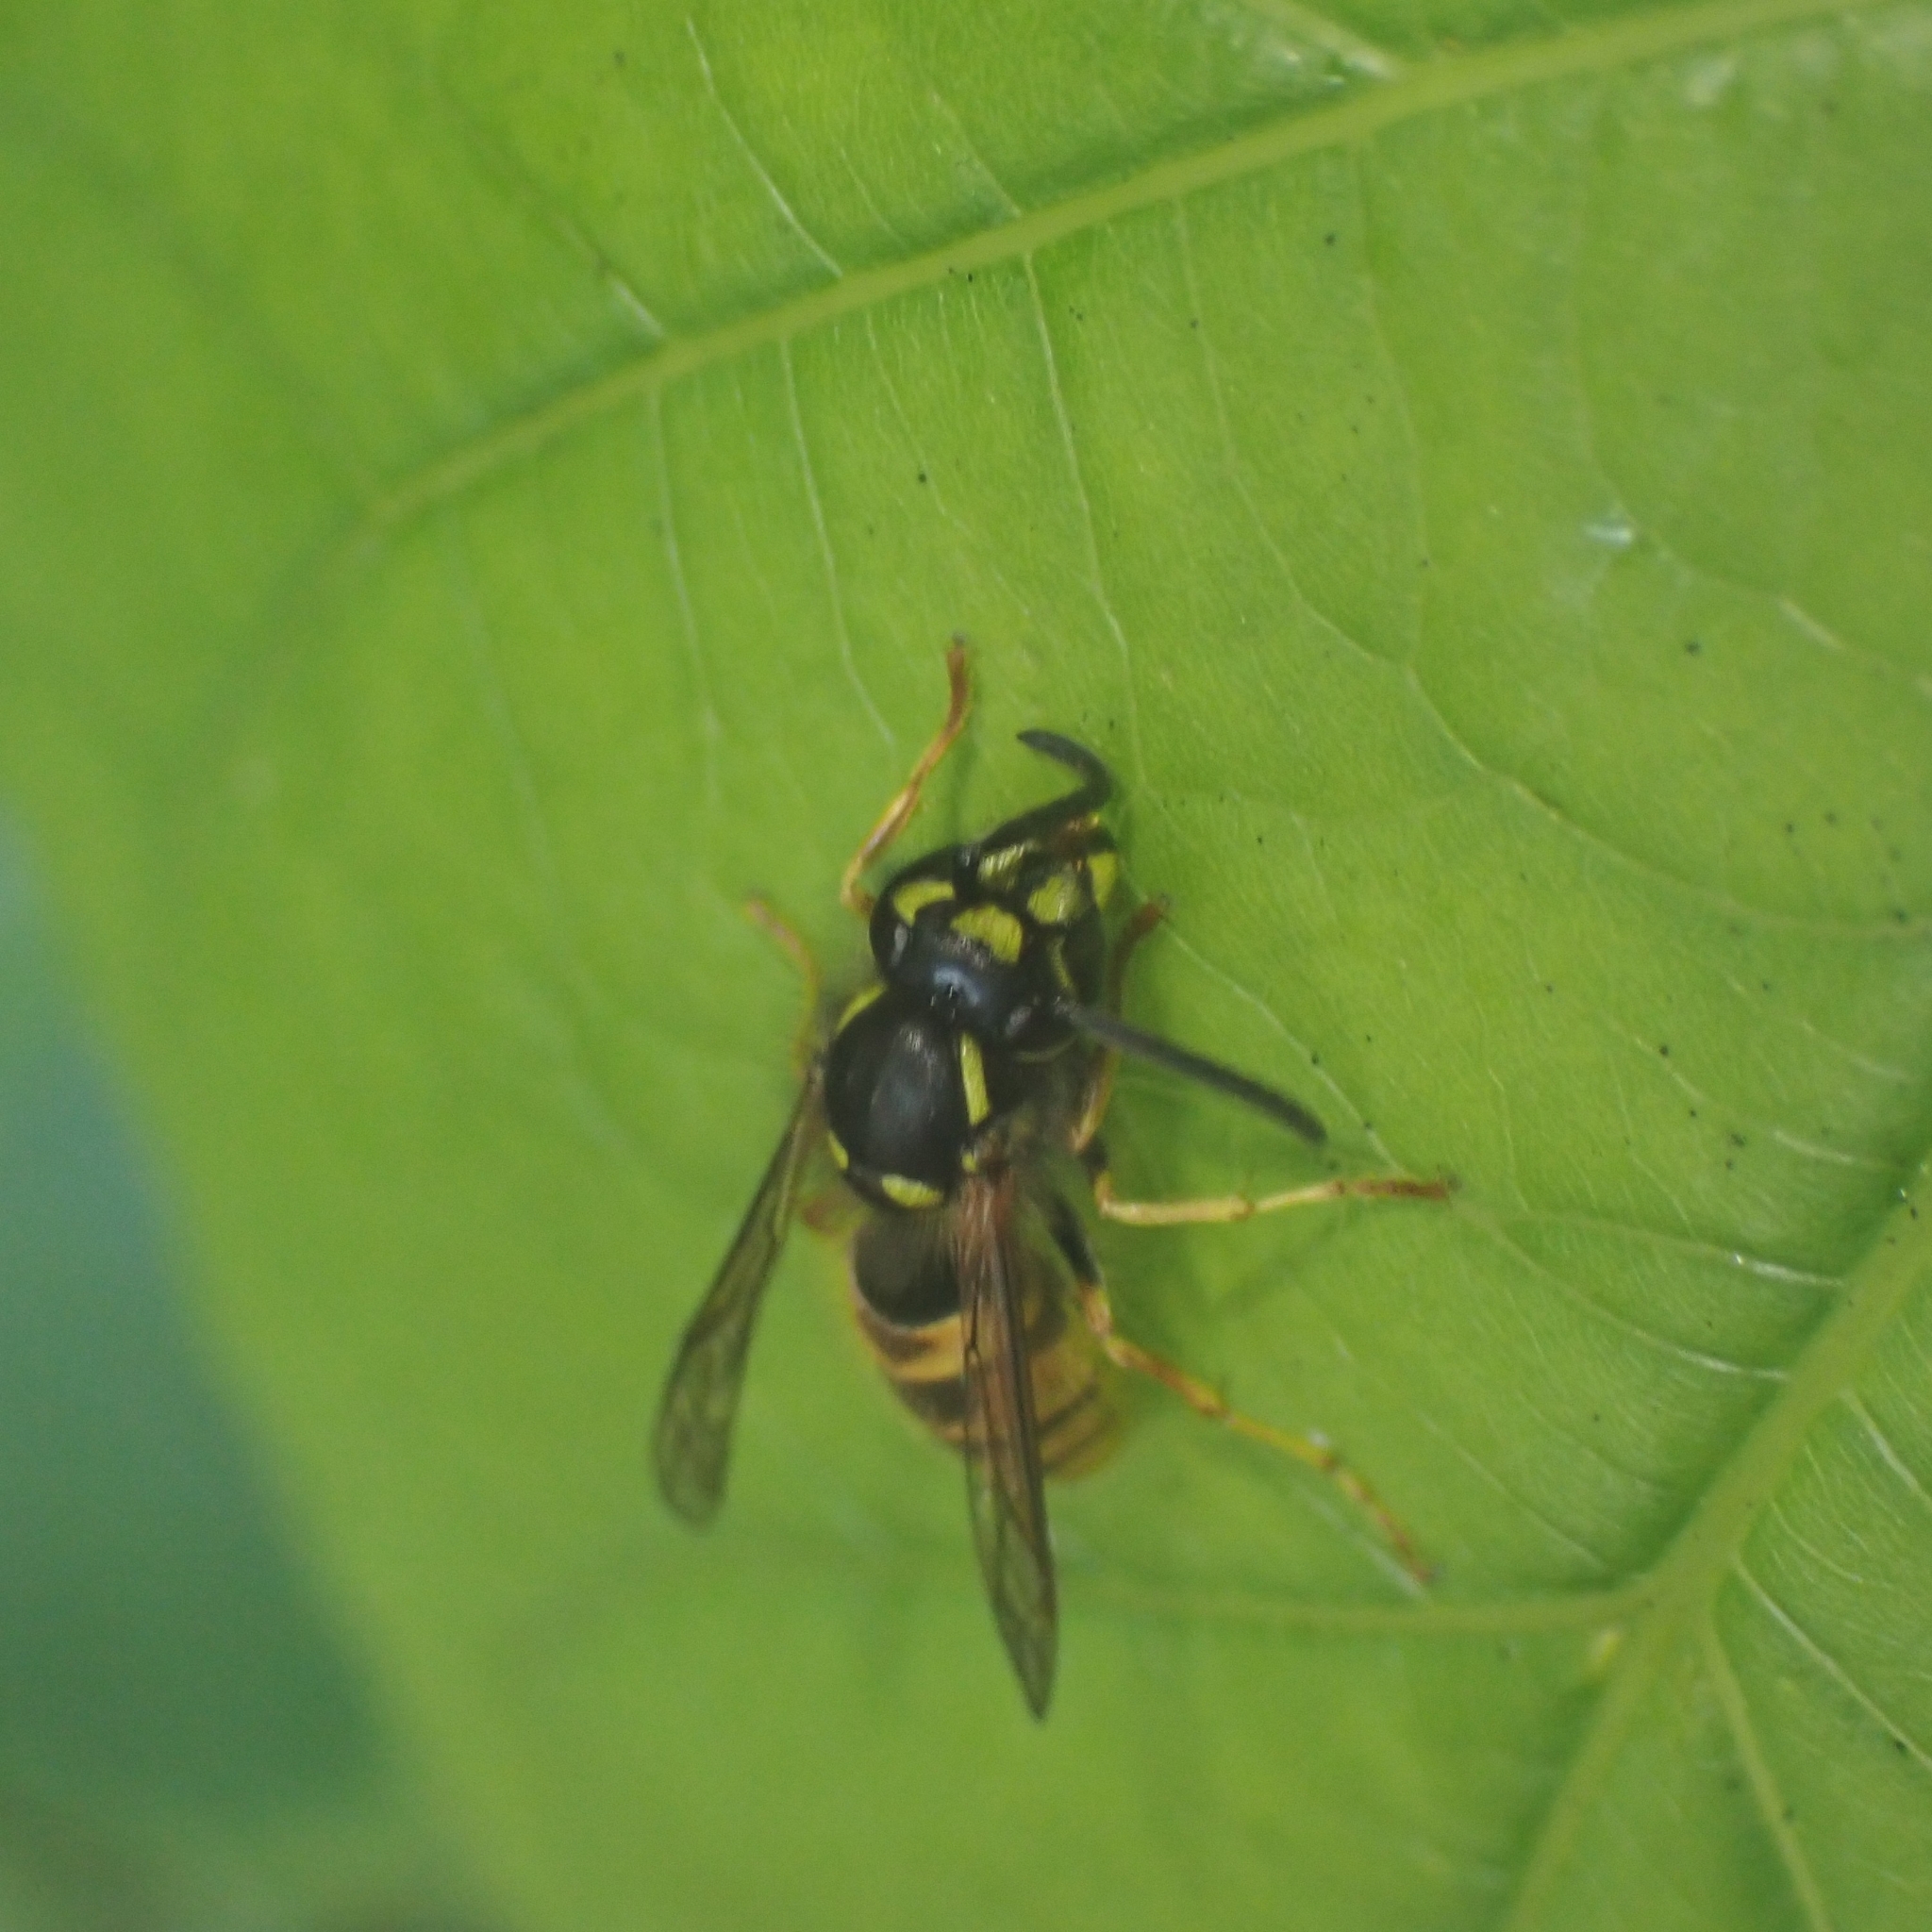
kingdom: Animalia
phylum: Arthropoda
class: Insecta
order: Hymenoptera
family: Vespidae
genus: Vespula
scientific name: Vespula vulgaris
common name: Common wasp
